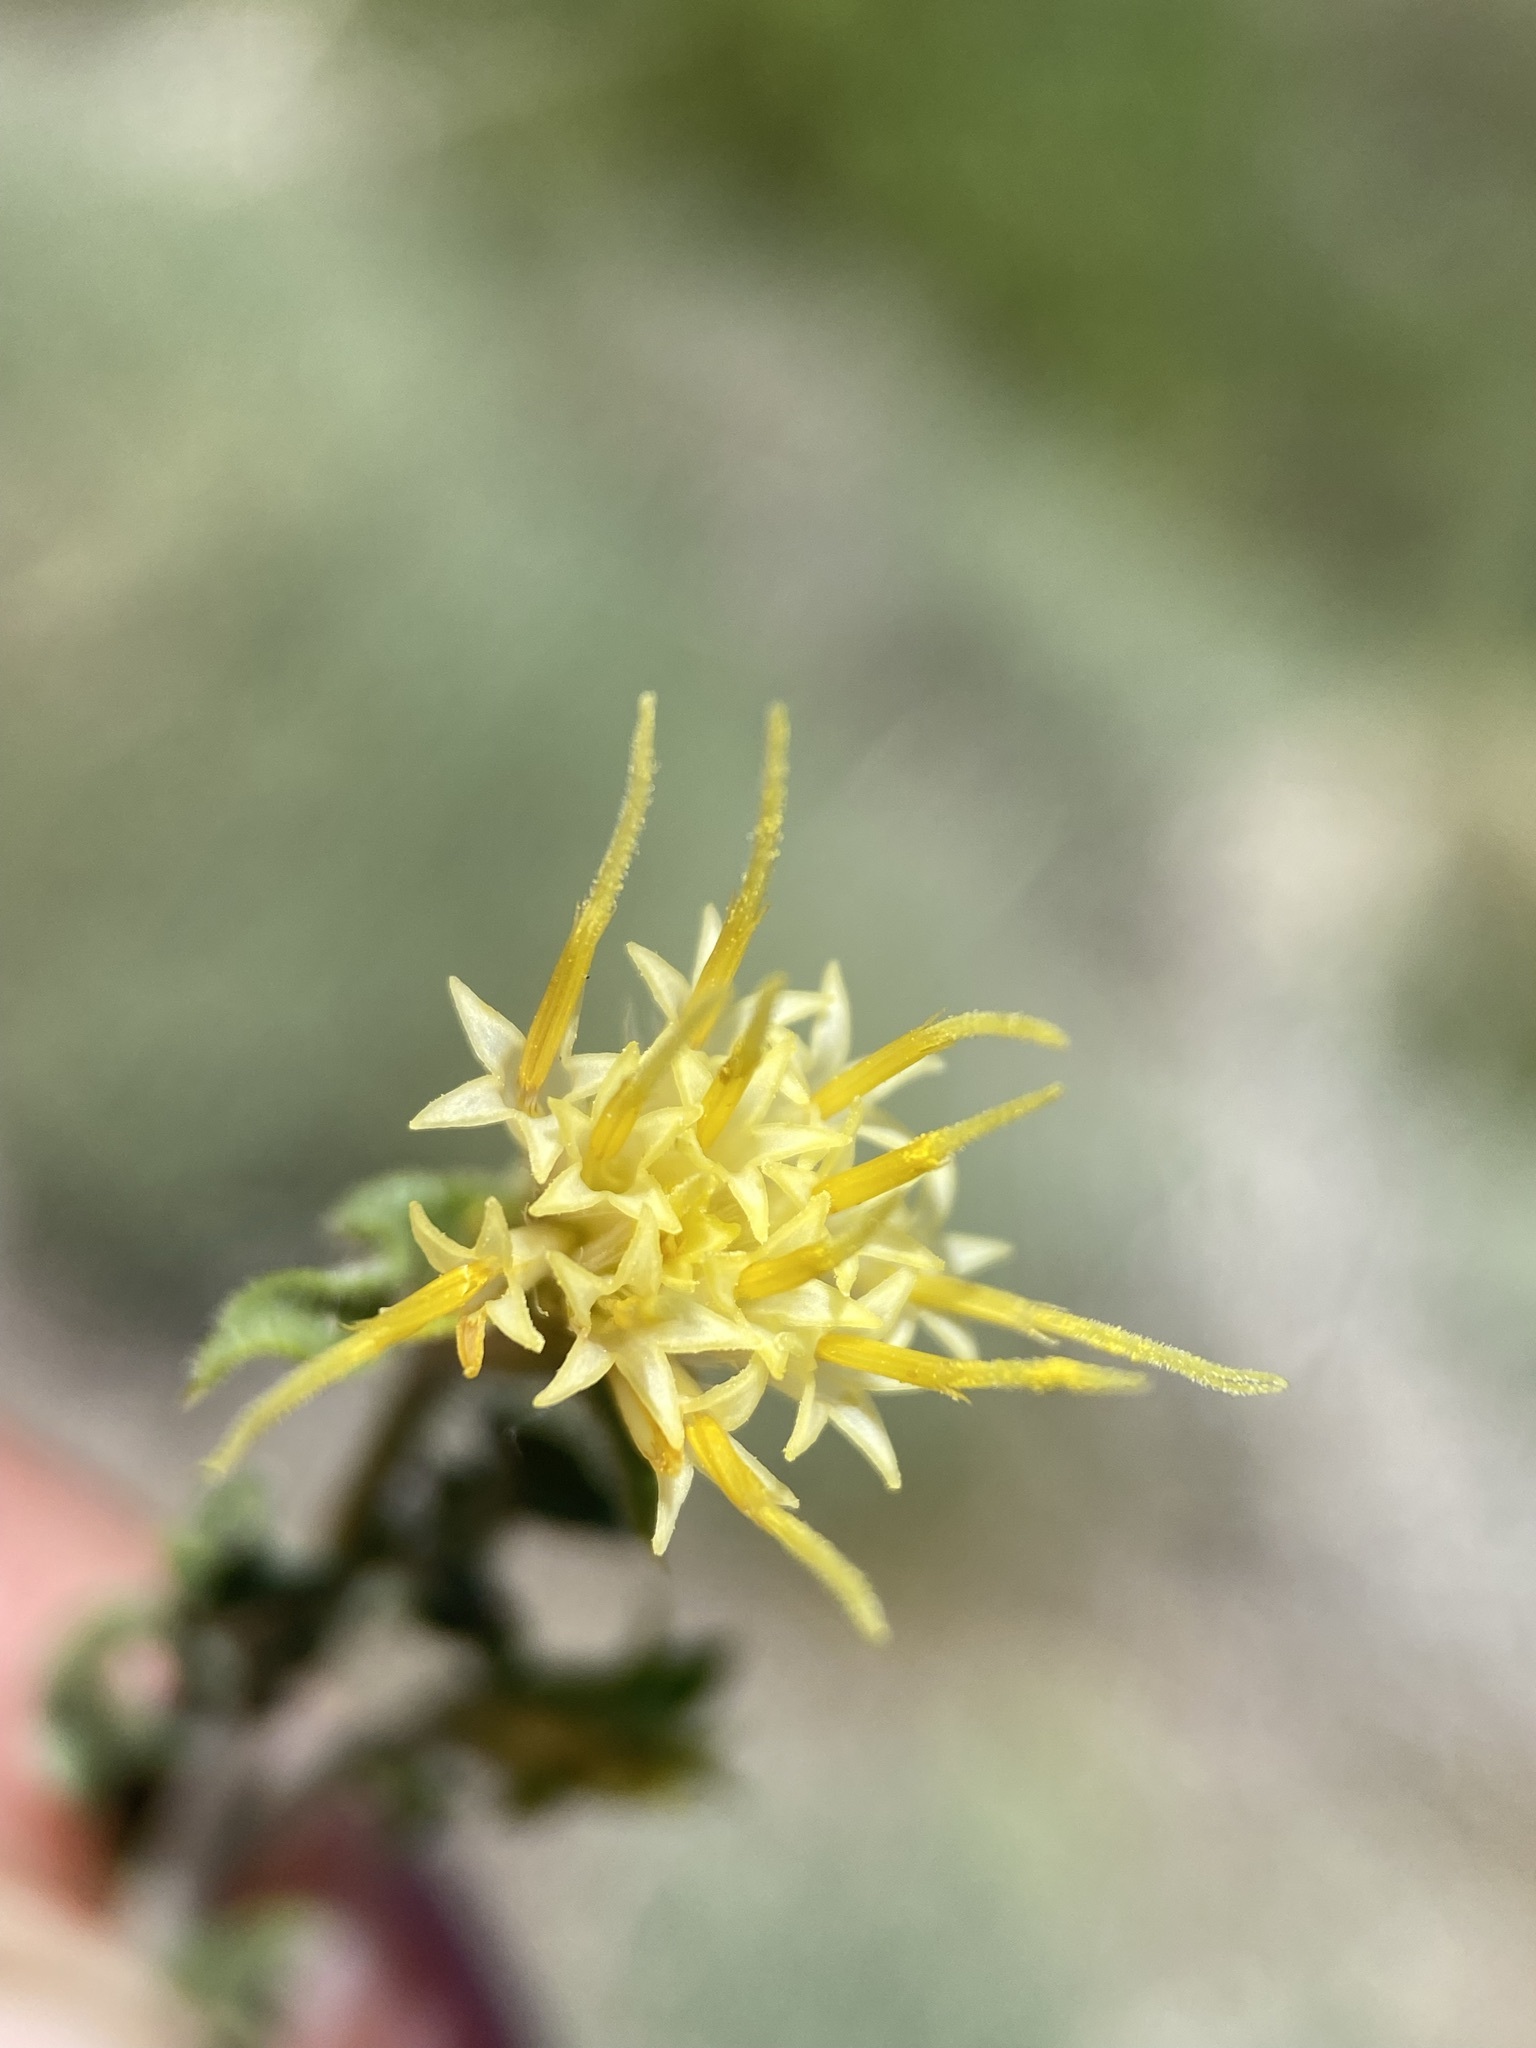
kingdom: Plantae
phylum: Tracheophyta
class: Magnoliopsida
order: Asterales
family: Asteraceae
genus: Ericameria
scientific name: Ericameria discoidea
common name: Sharp-scale goldenweed
